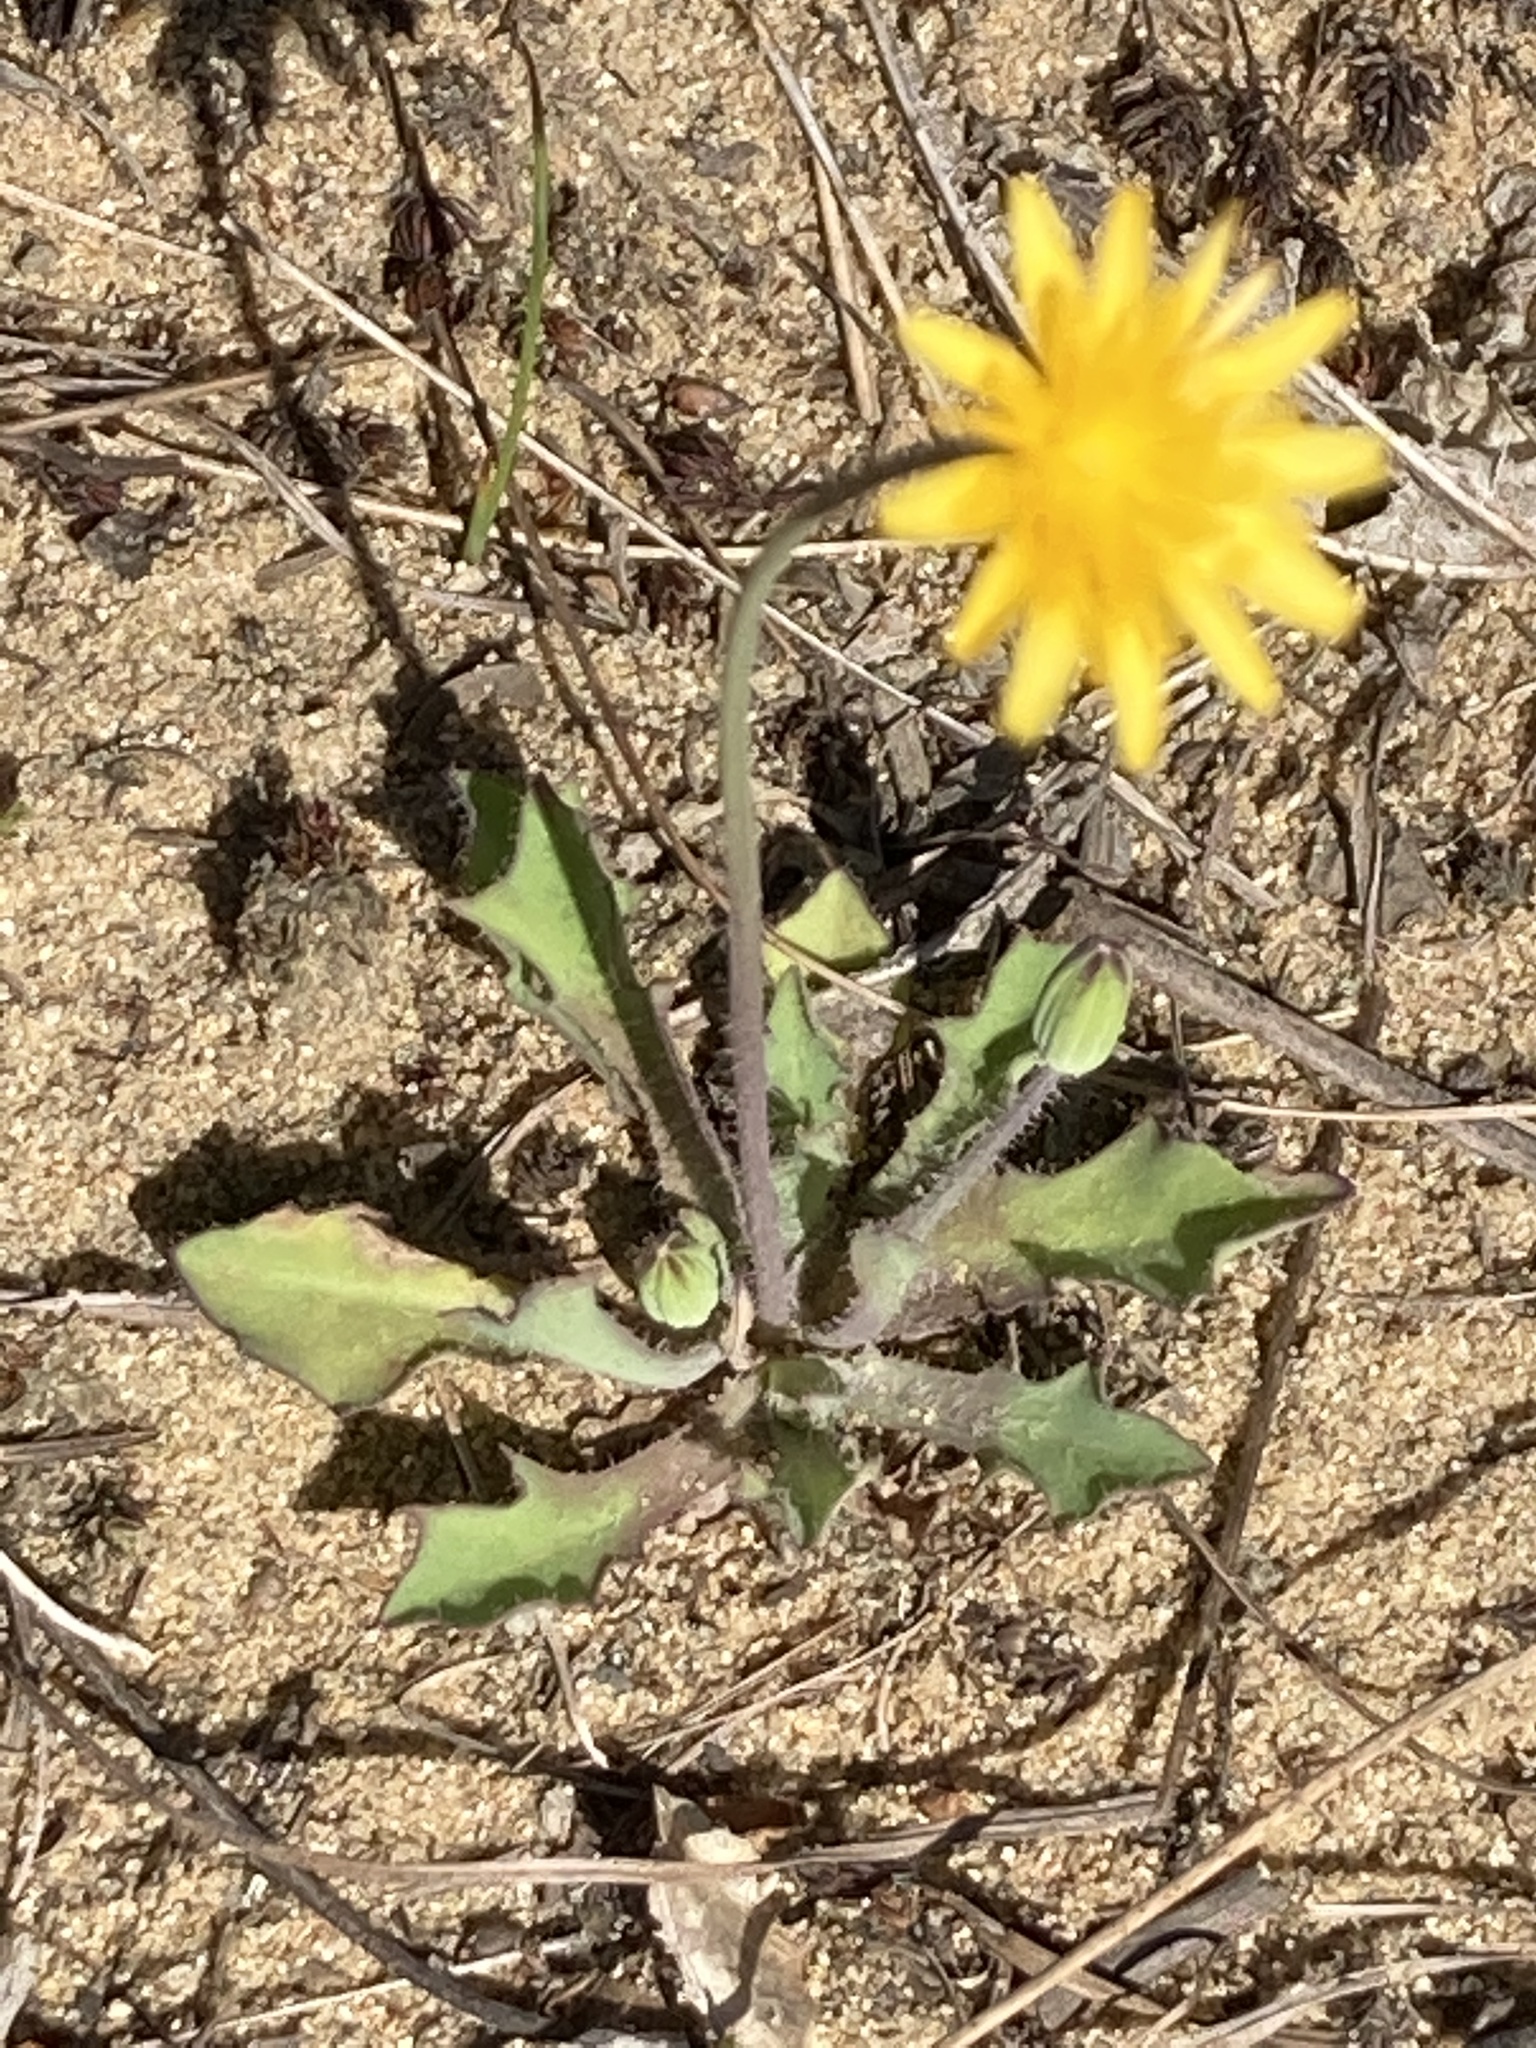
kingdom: Plantae
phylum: Tracheophyta
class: Magnoliopsida
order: Asterales
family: Asteraceae
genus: Krigia
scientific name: Krigia virginica
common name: Virginia dwarf-dandelion
